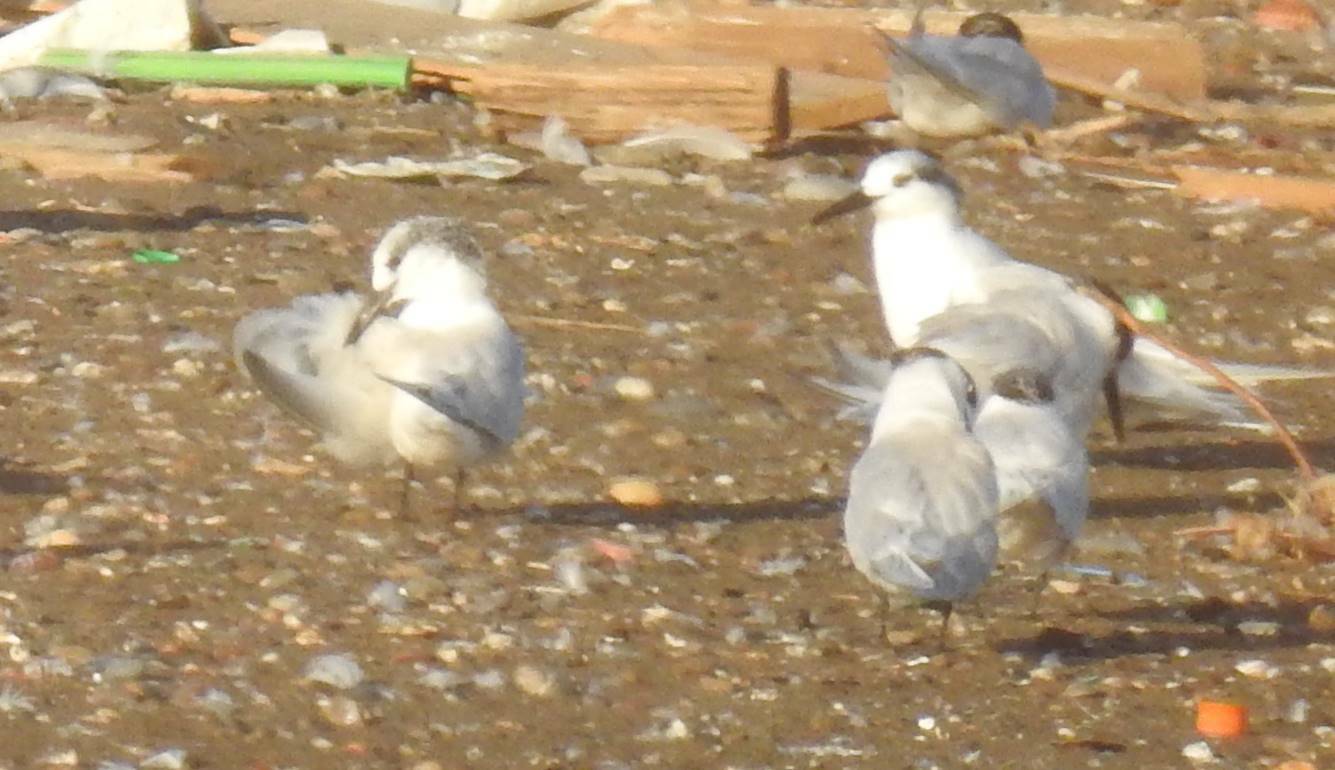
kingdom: Animalia
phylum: Chordata
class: Aves
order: Charadriiformes
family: Laridae
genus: Thalasseus
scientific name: Thalasseus sandvicensis
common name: Sandwich tern
